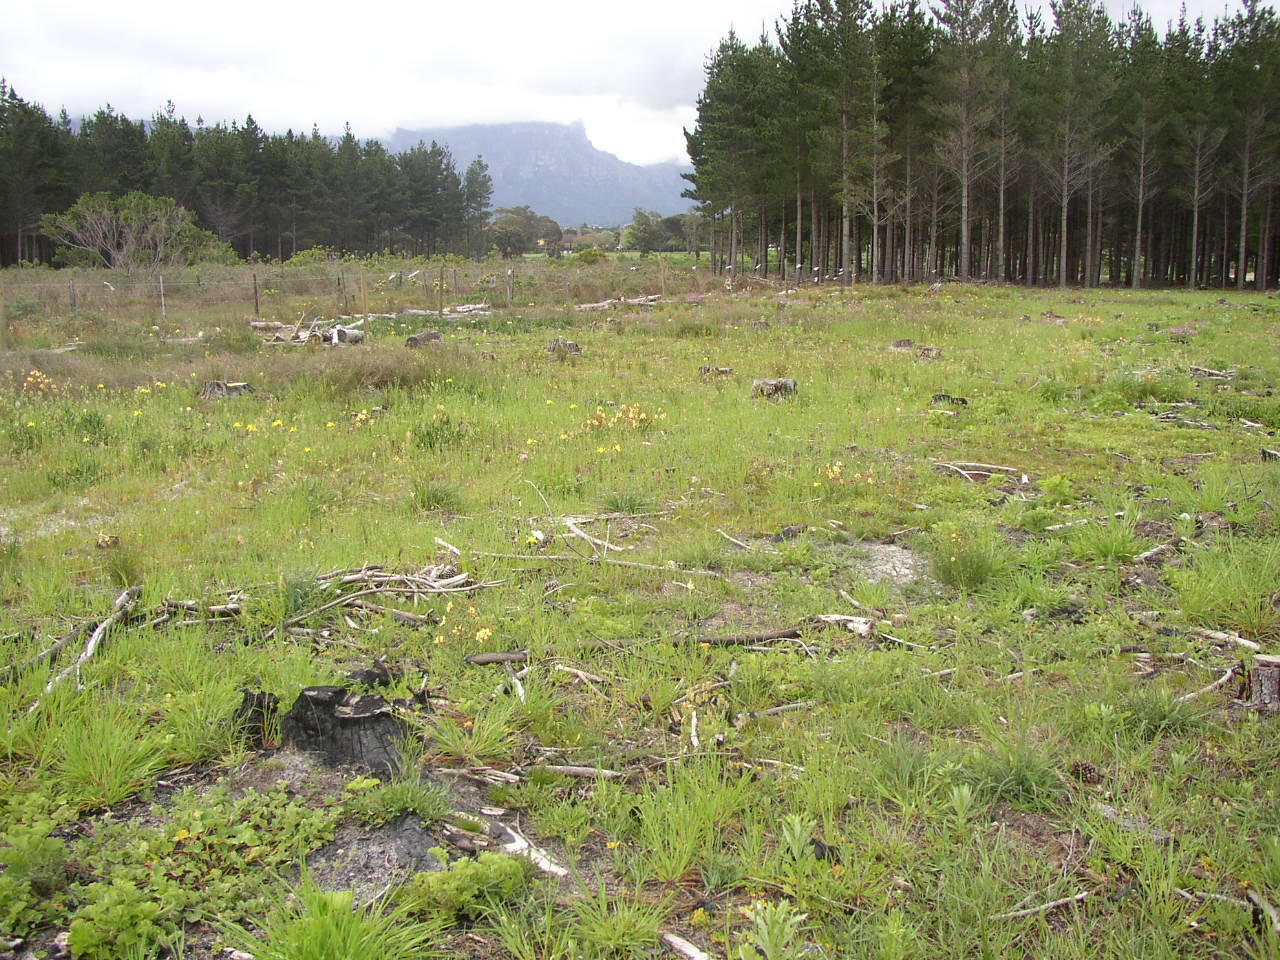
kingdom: Plantae
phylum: Tracheophyta
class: Liliopsida
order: Commelinales
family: Haemodoraceae
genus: Wachendorfia
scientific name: Wachendorfia paniculata
